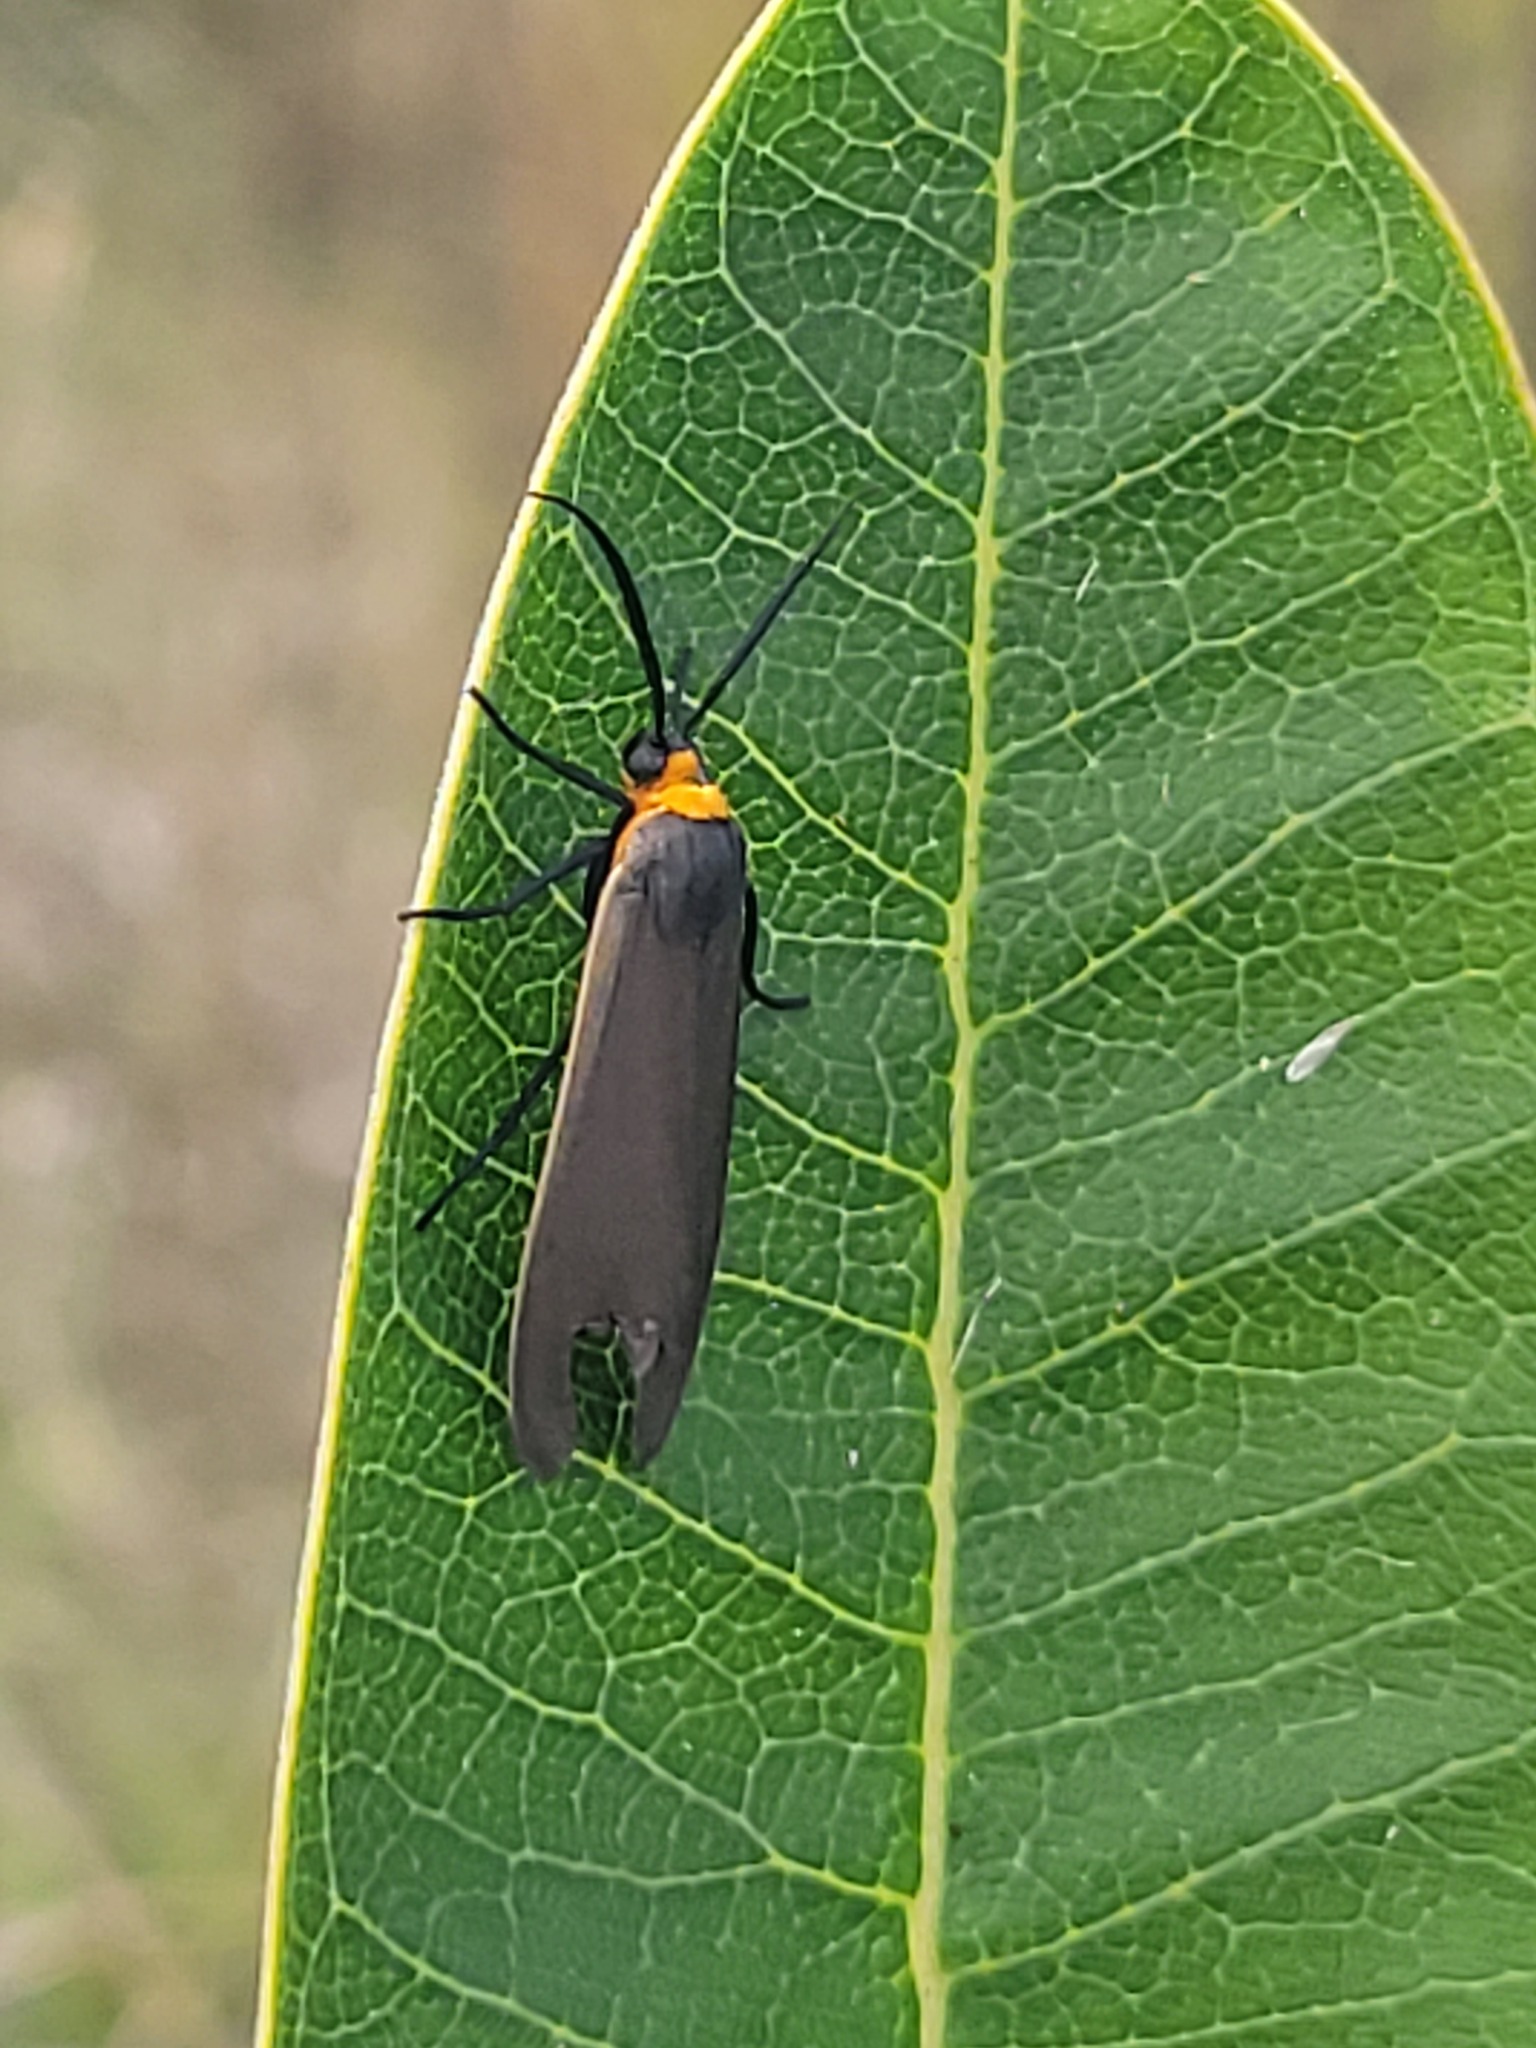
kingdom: Animalia
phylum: Arthropoda
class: Insecta
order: Lepidoptera
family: Erebidae
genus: Cisseps
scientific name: Cisseps fulvicollis
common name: Yellow-collared scape moth
